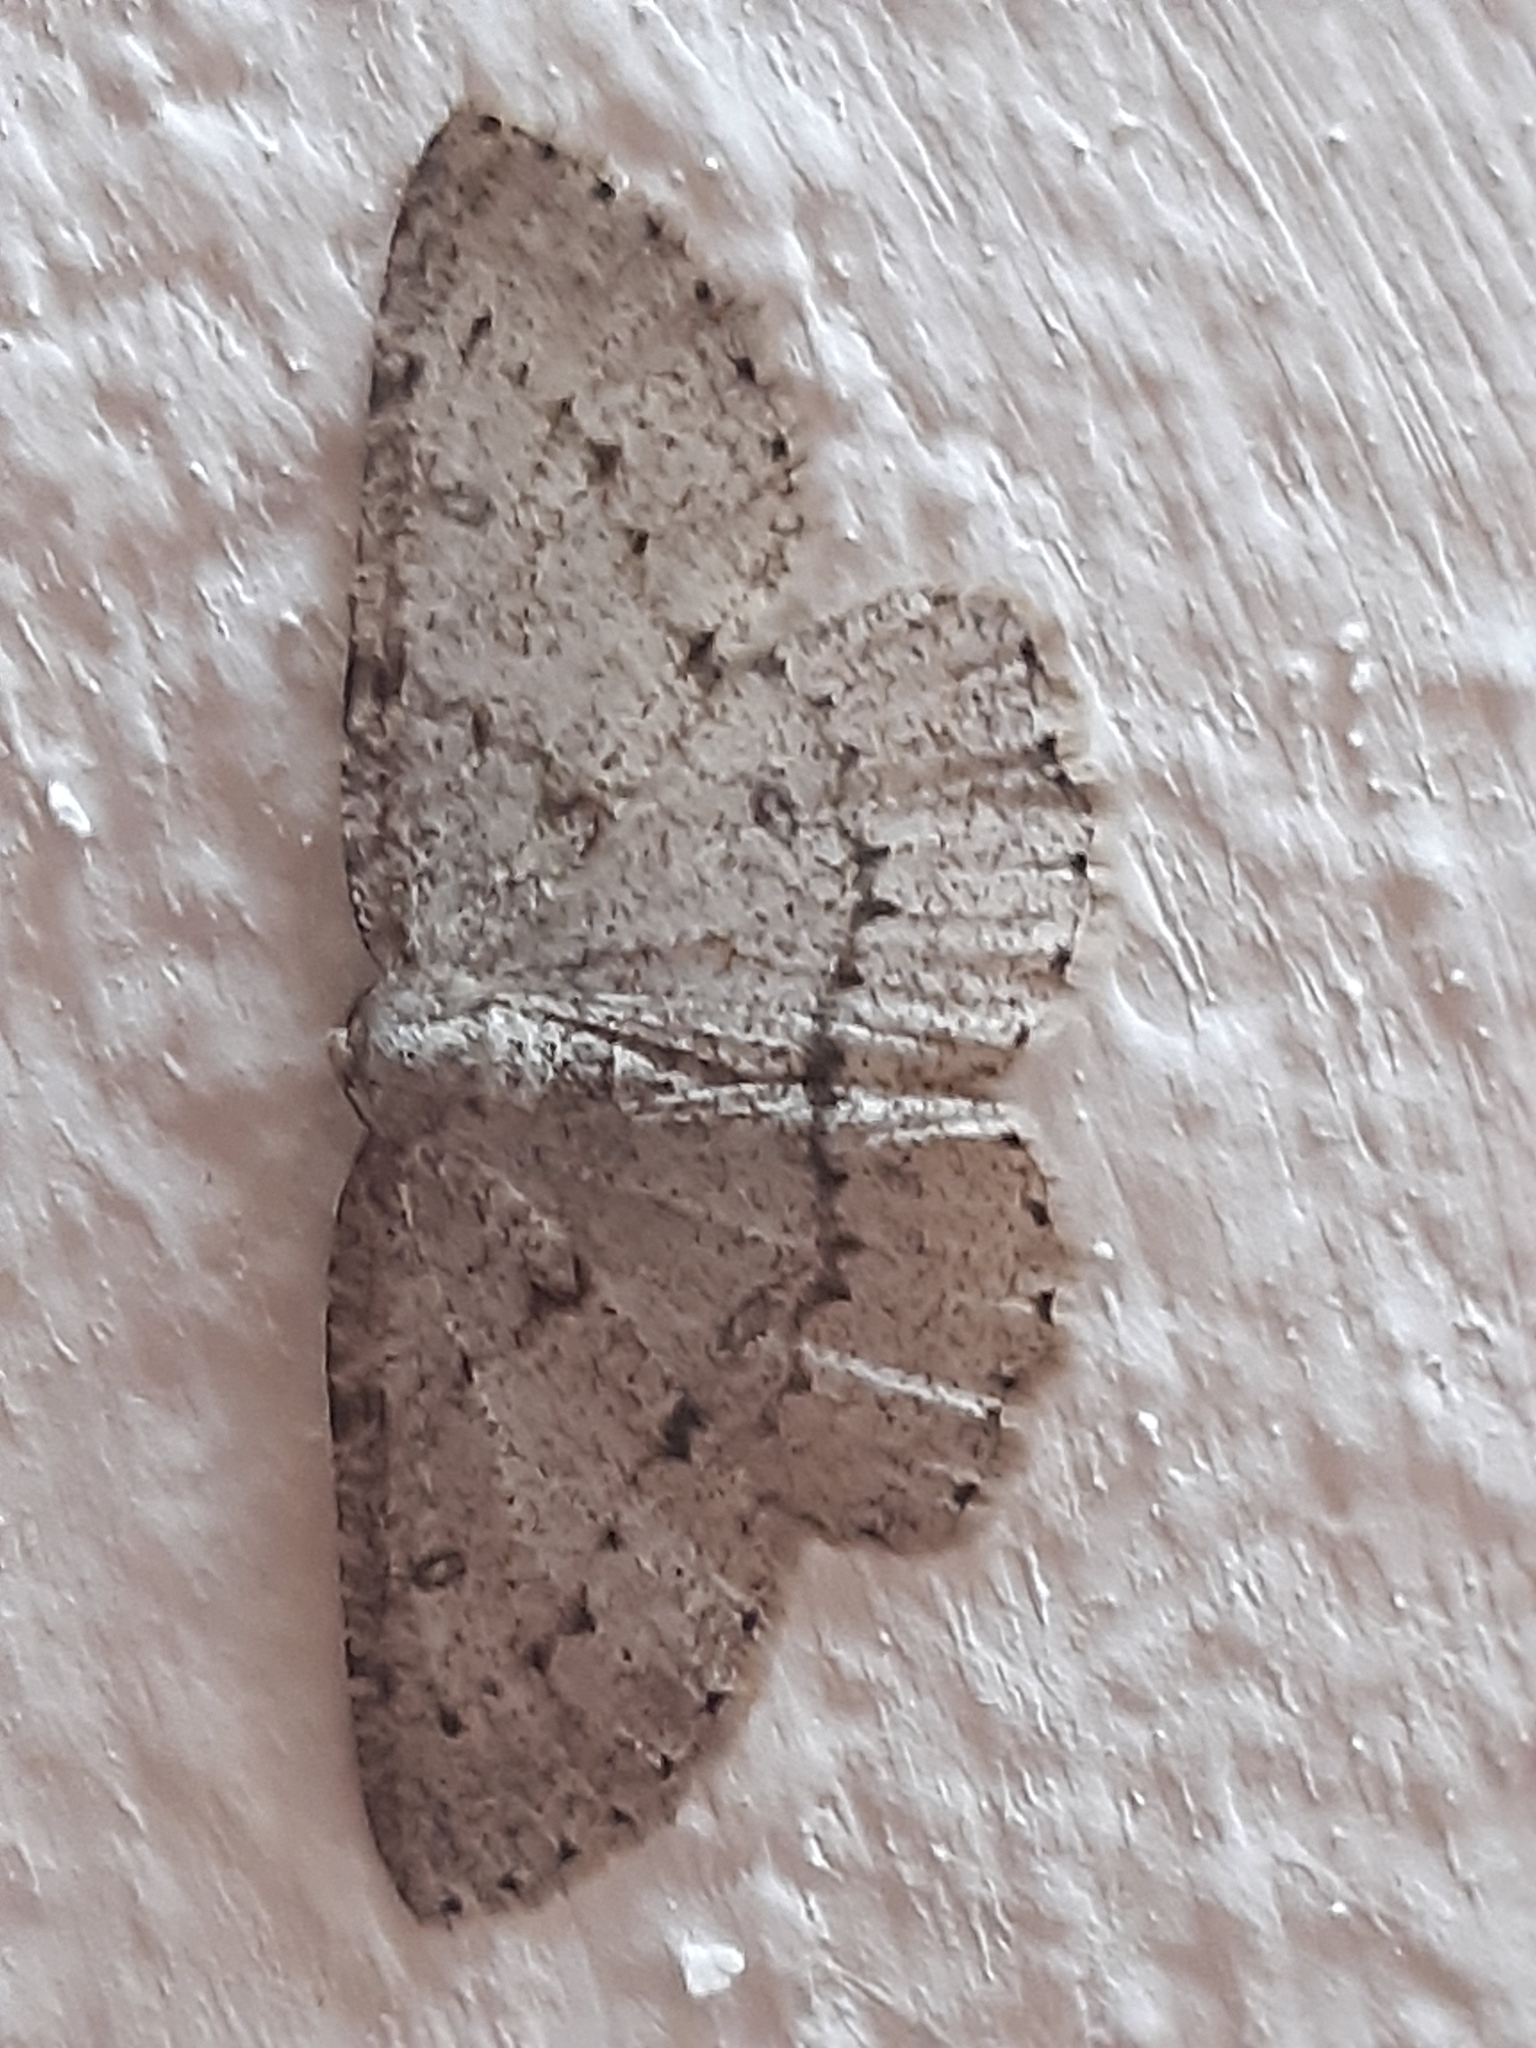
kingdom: Animalia
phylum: Arthropoda
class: Insecta
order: Lepidoptera
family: Geometridae
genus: Elophos
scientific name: Elophos Yezognophos dilucidaria
